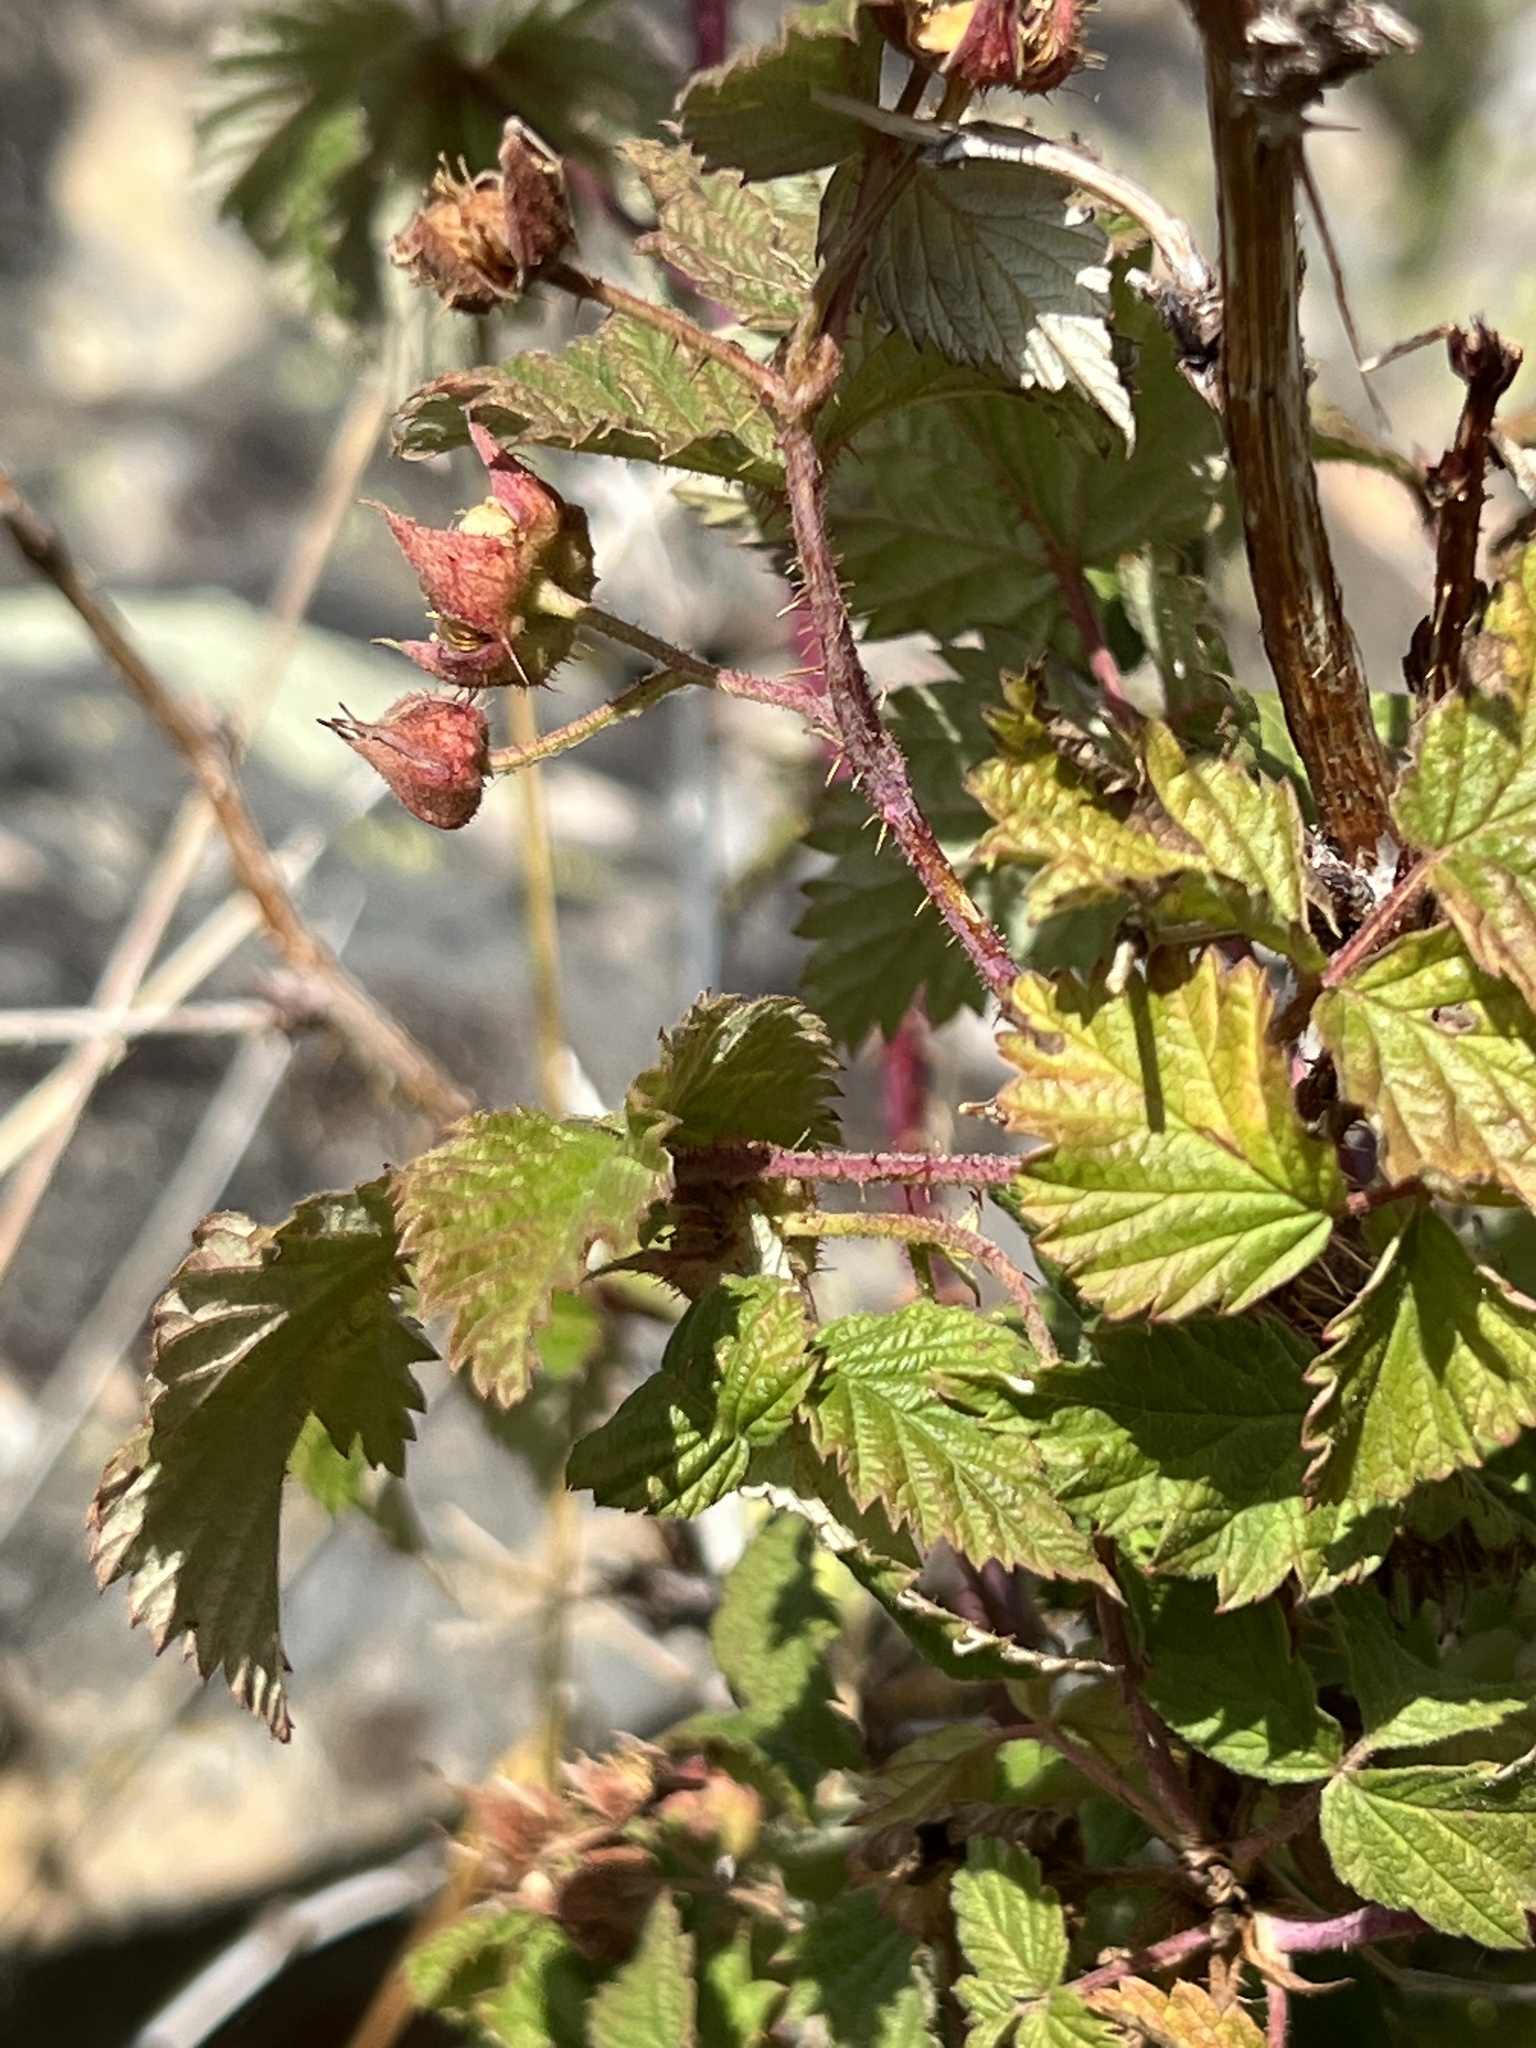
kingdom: Plantae
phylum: Tracheophyta
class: Magnoliopsida
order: Rosales
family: Rosaceae
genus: Rubus
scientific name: Rubus idaeus
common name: Raspberry
